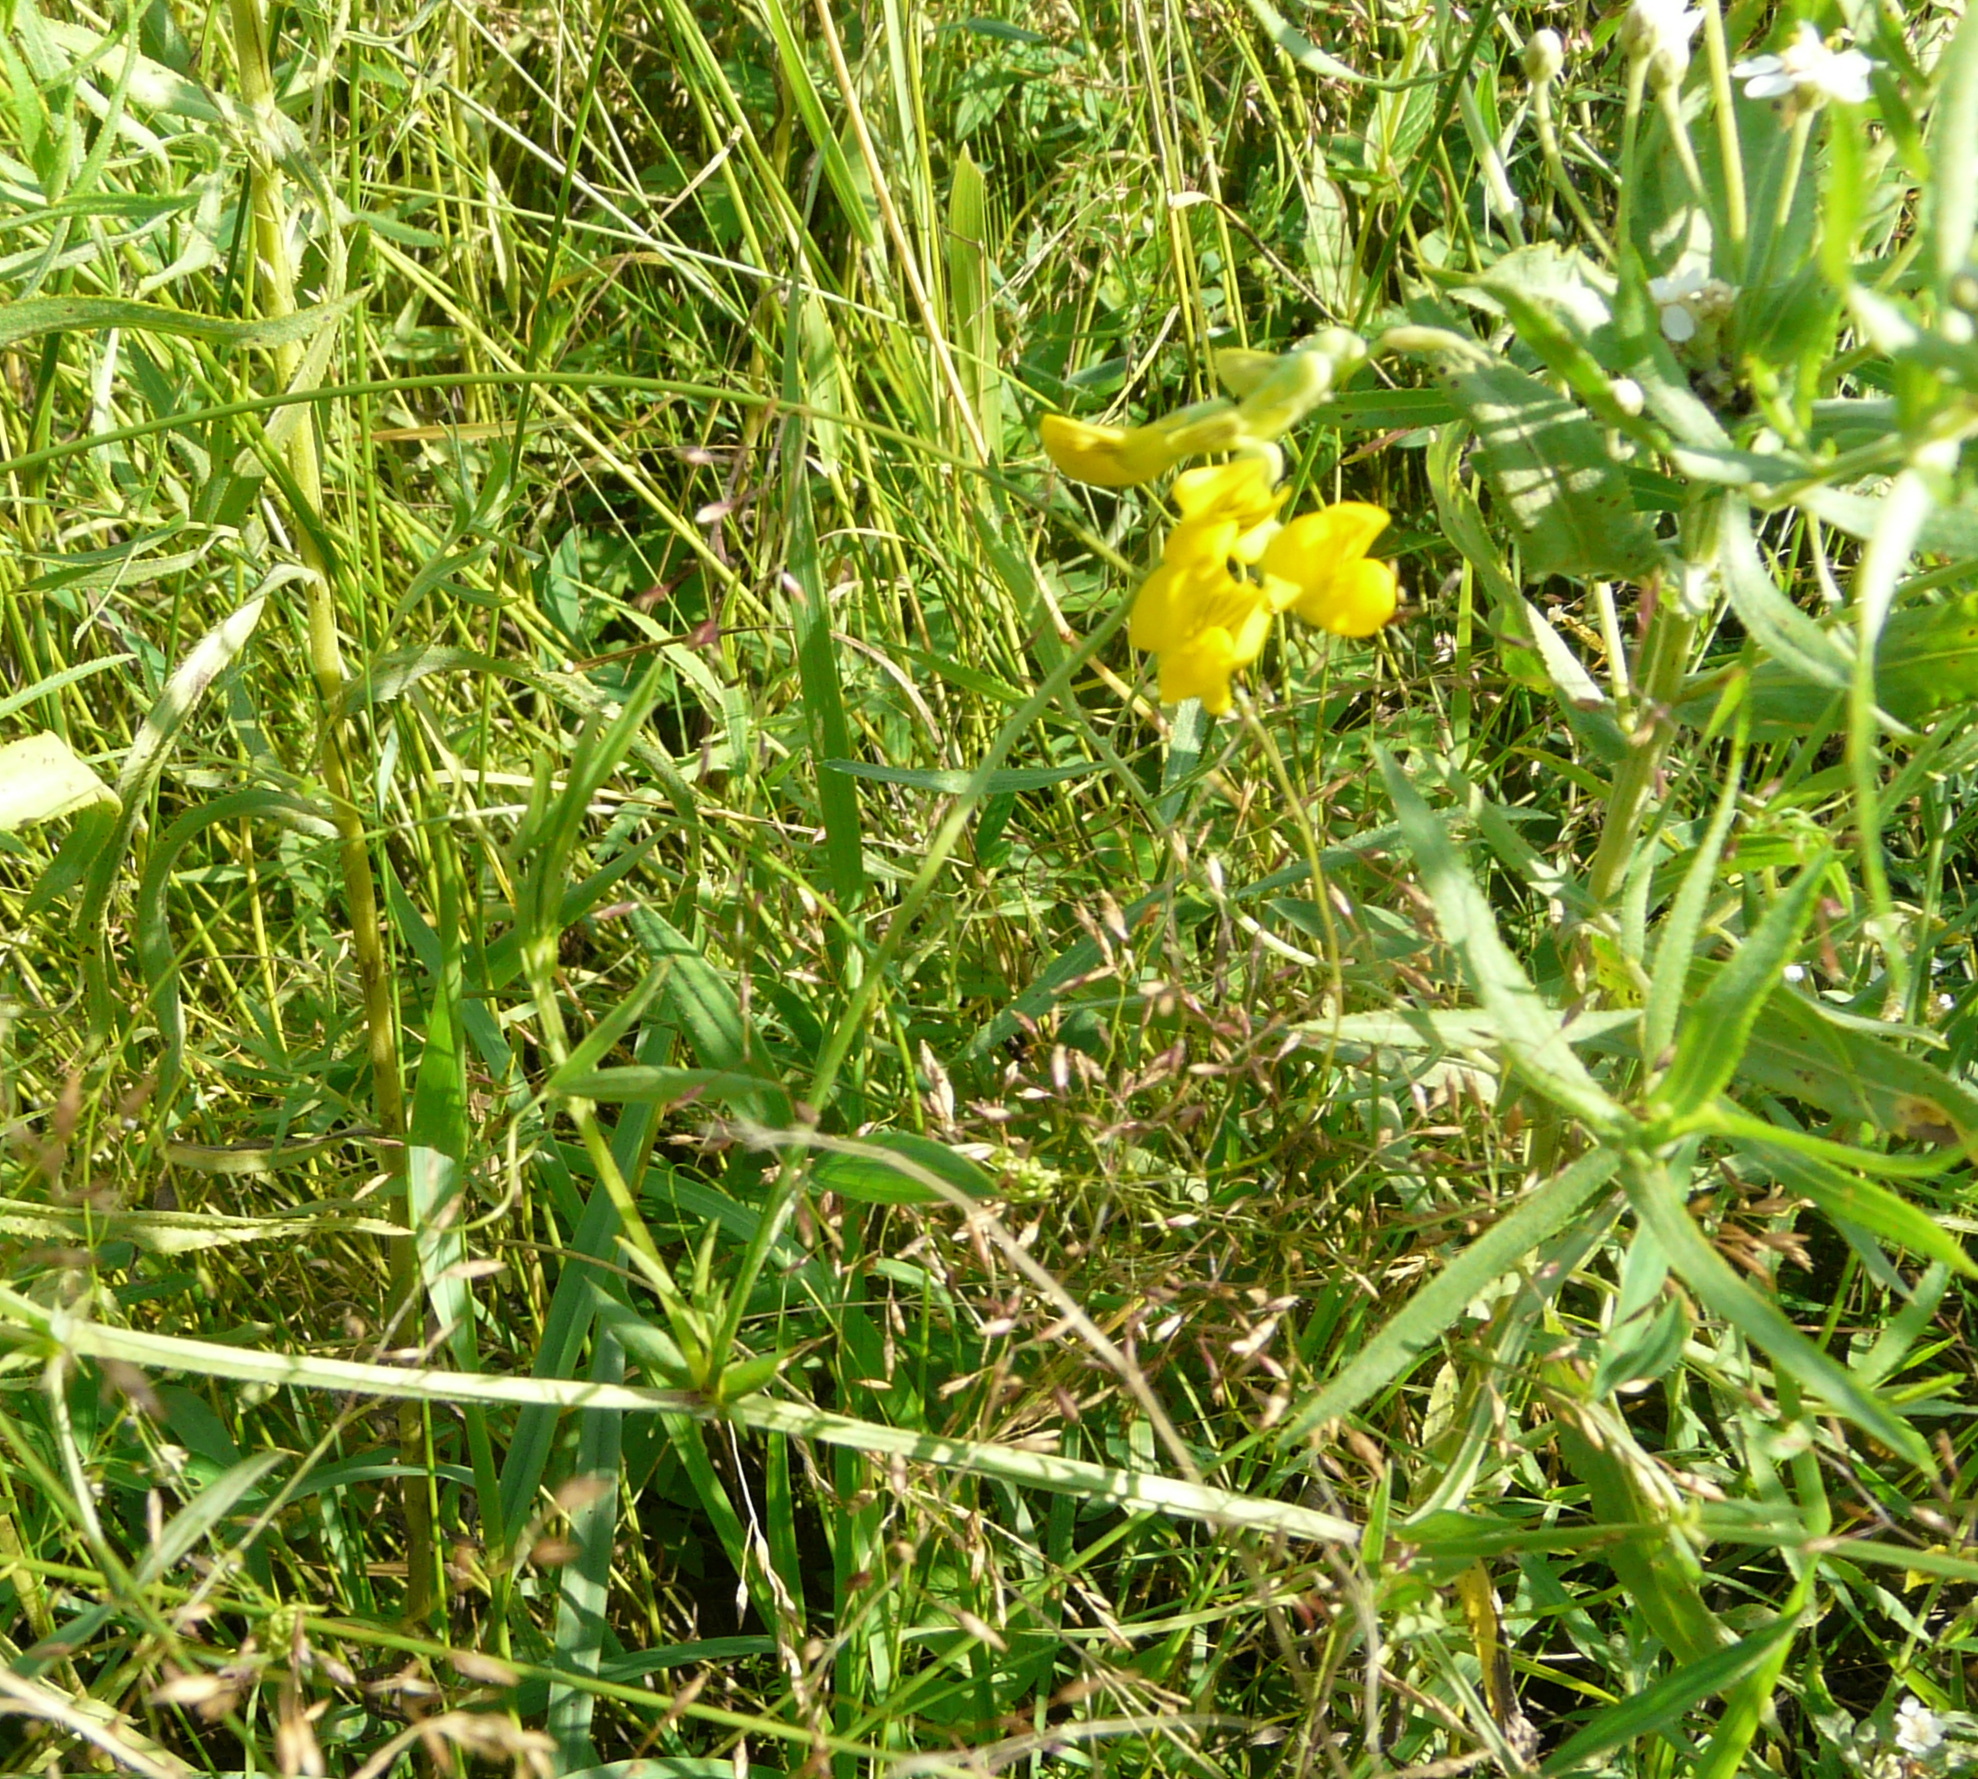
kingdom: Plantae
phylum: Tracheophyta
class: Magnoliopsida
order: Fabales
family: Fabaceae
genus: Lathyrus
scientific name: Lathyrus pratensis
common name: Meadow vetchling
